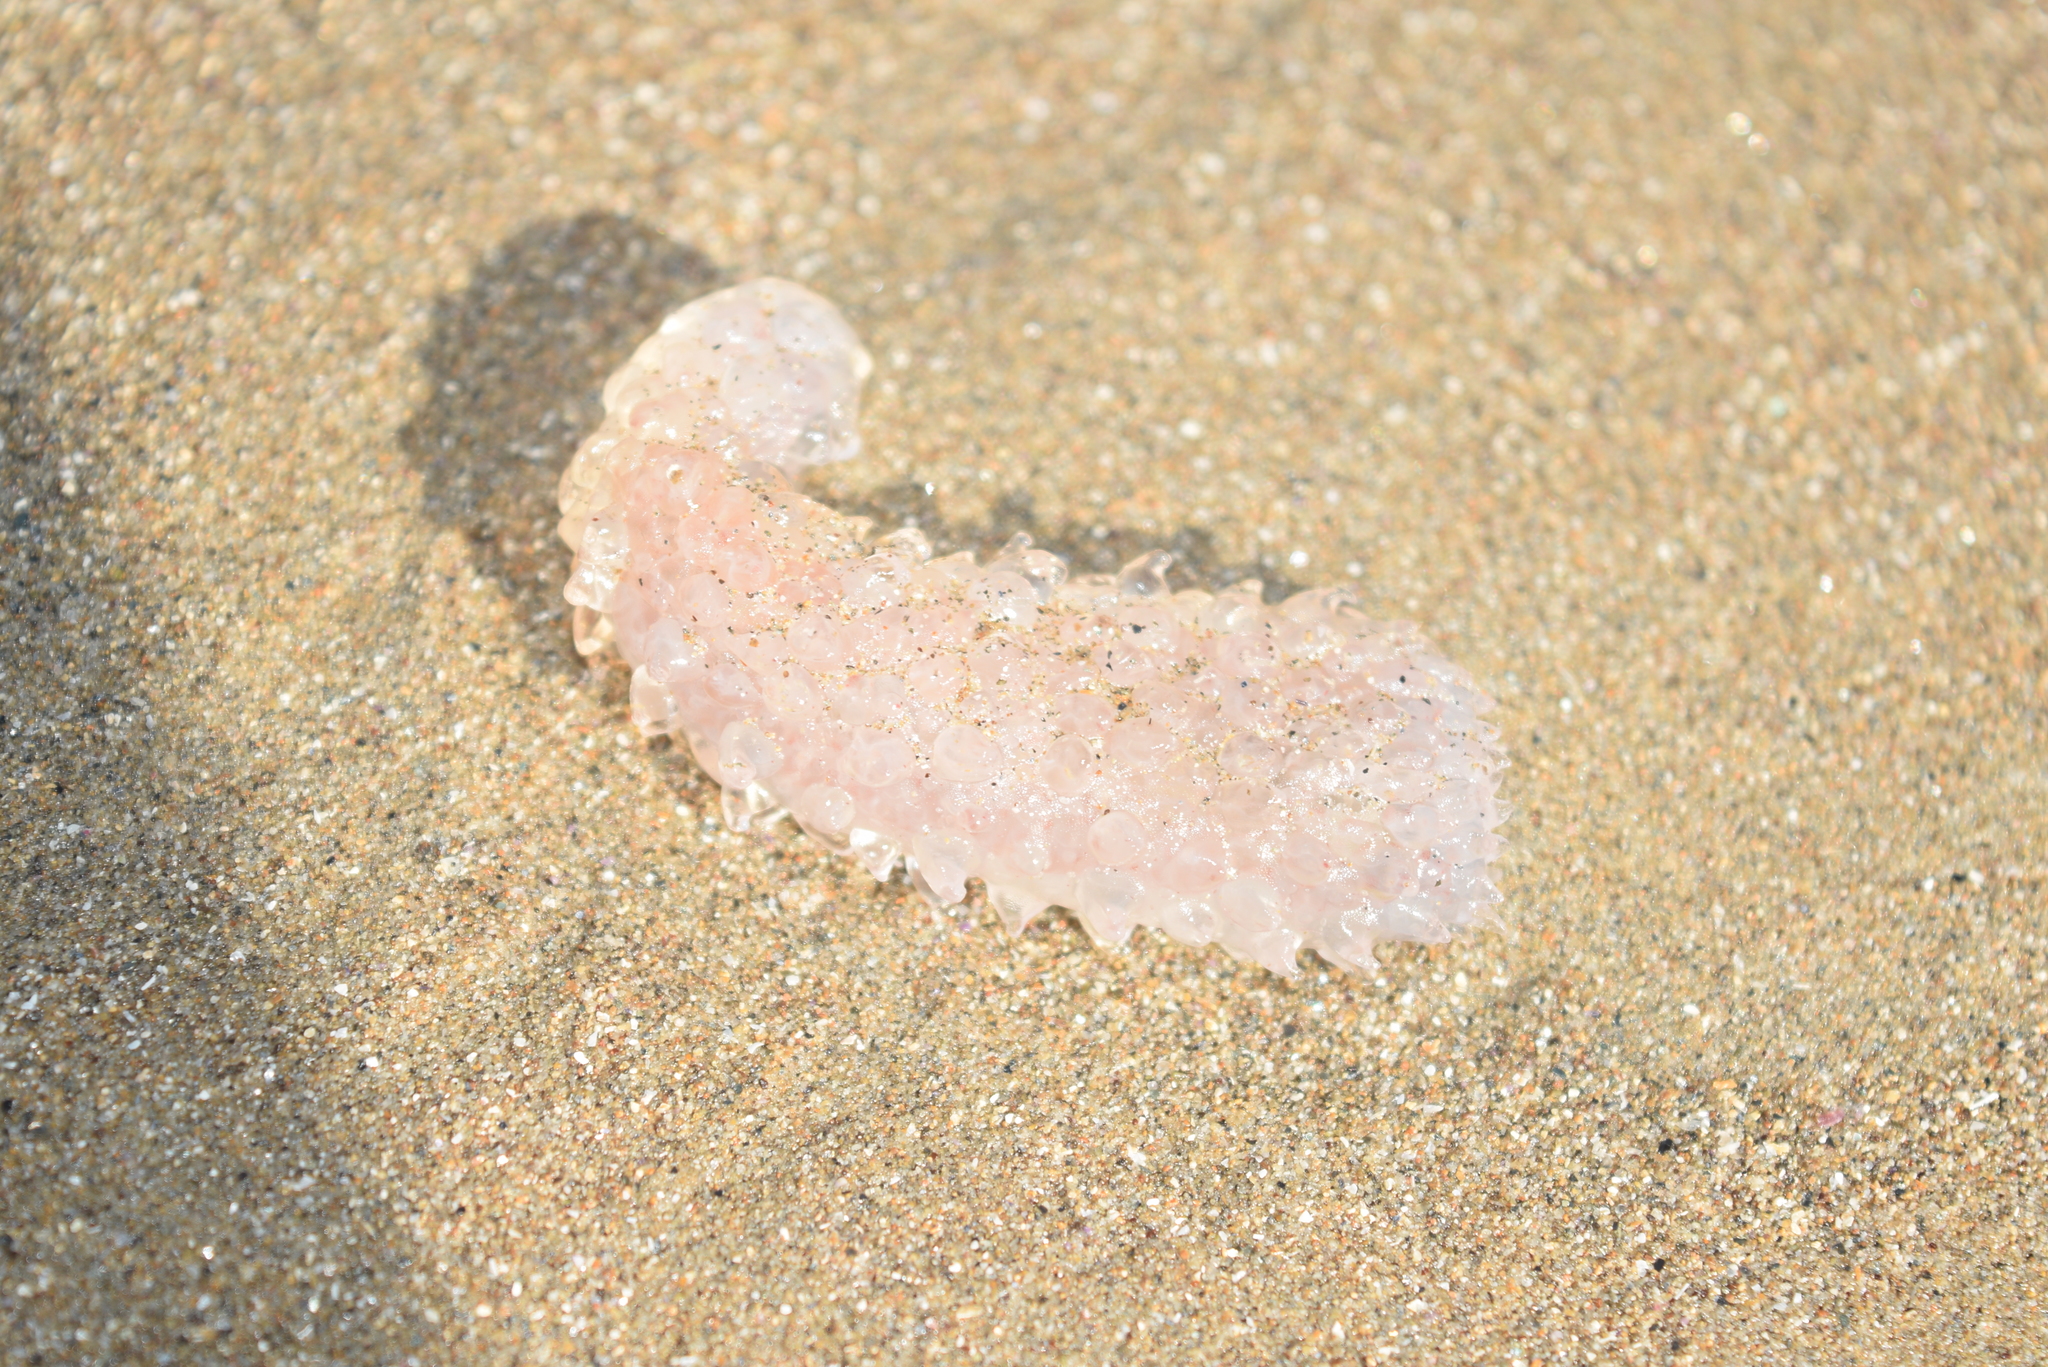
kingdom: Animalia
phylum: Chordata
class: Thaliacea
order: Pyrosomatida
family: Pyrosomatidae
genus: Pyrosoma
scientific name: Pyrosoma atlanticum
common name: Atlantic pyrosomes
